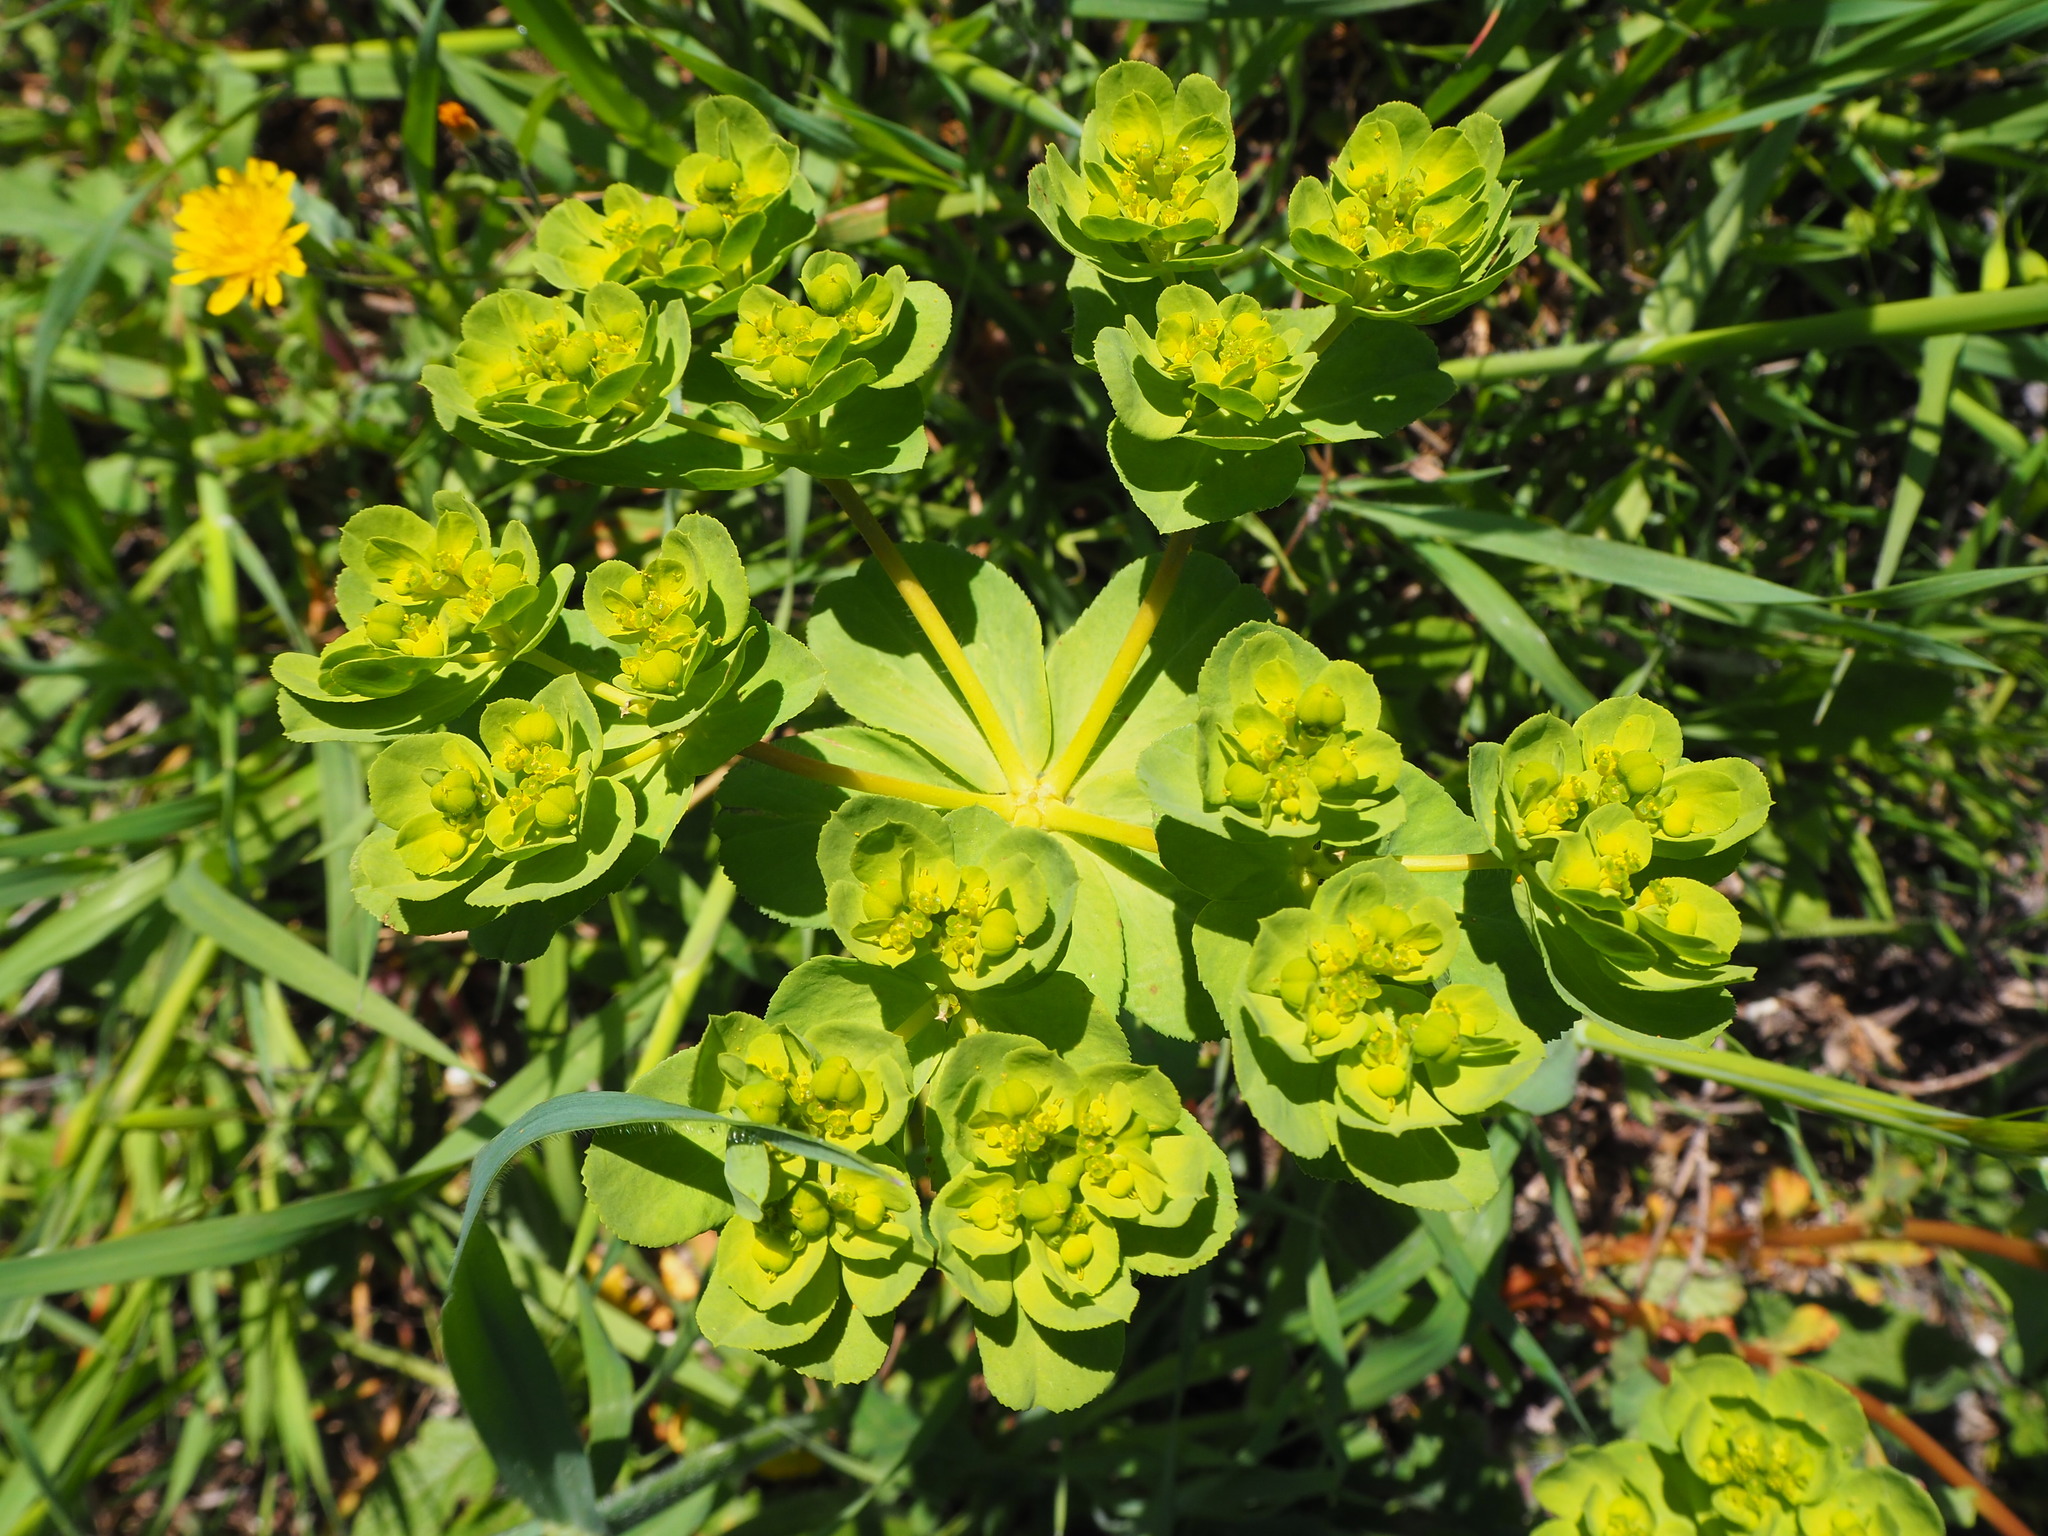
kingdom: Plantae
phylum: Tracheophyta
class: Magnoliopsida
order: Malpighiales
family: Euphorbiaceae
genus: Euphorbia
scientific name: Euphorbia helioscopia
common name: Sun spurge
